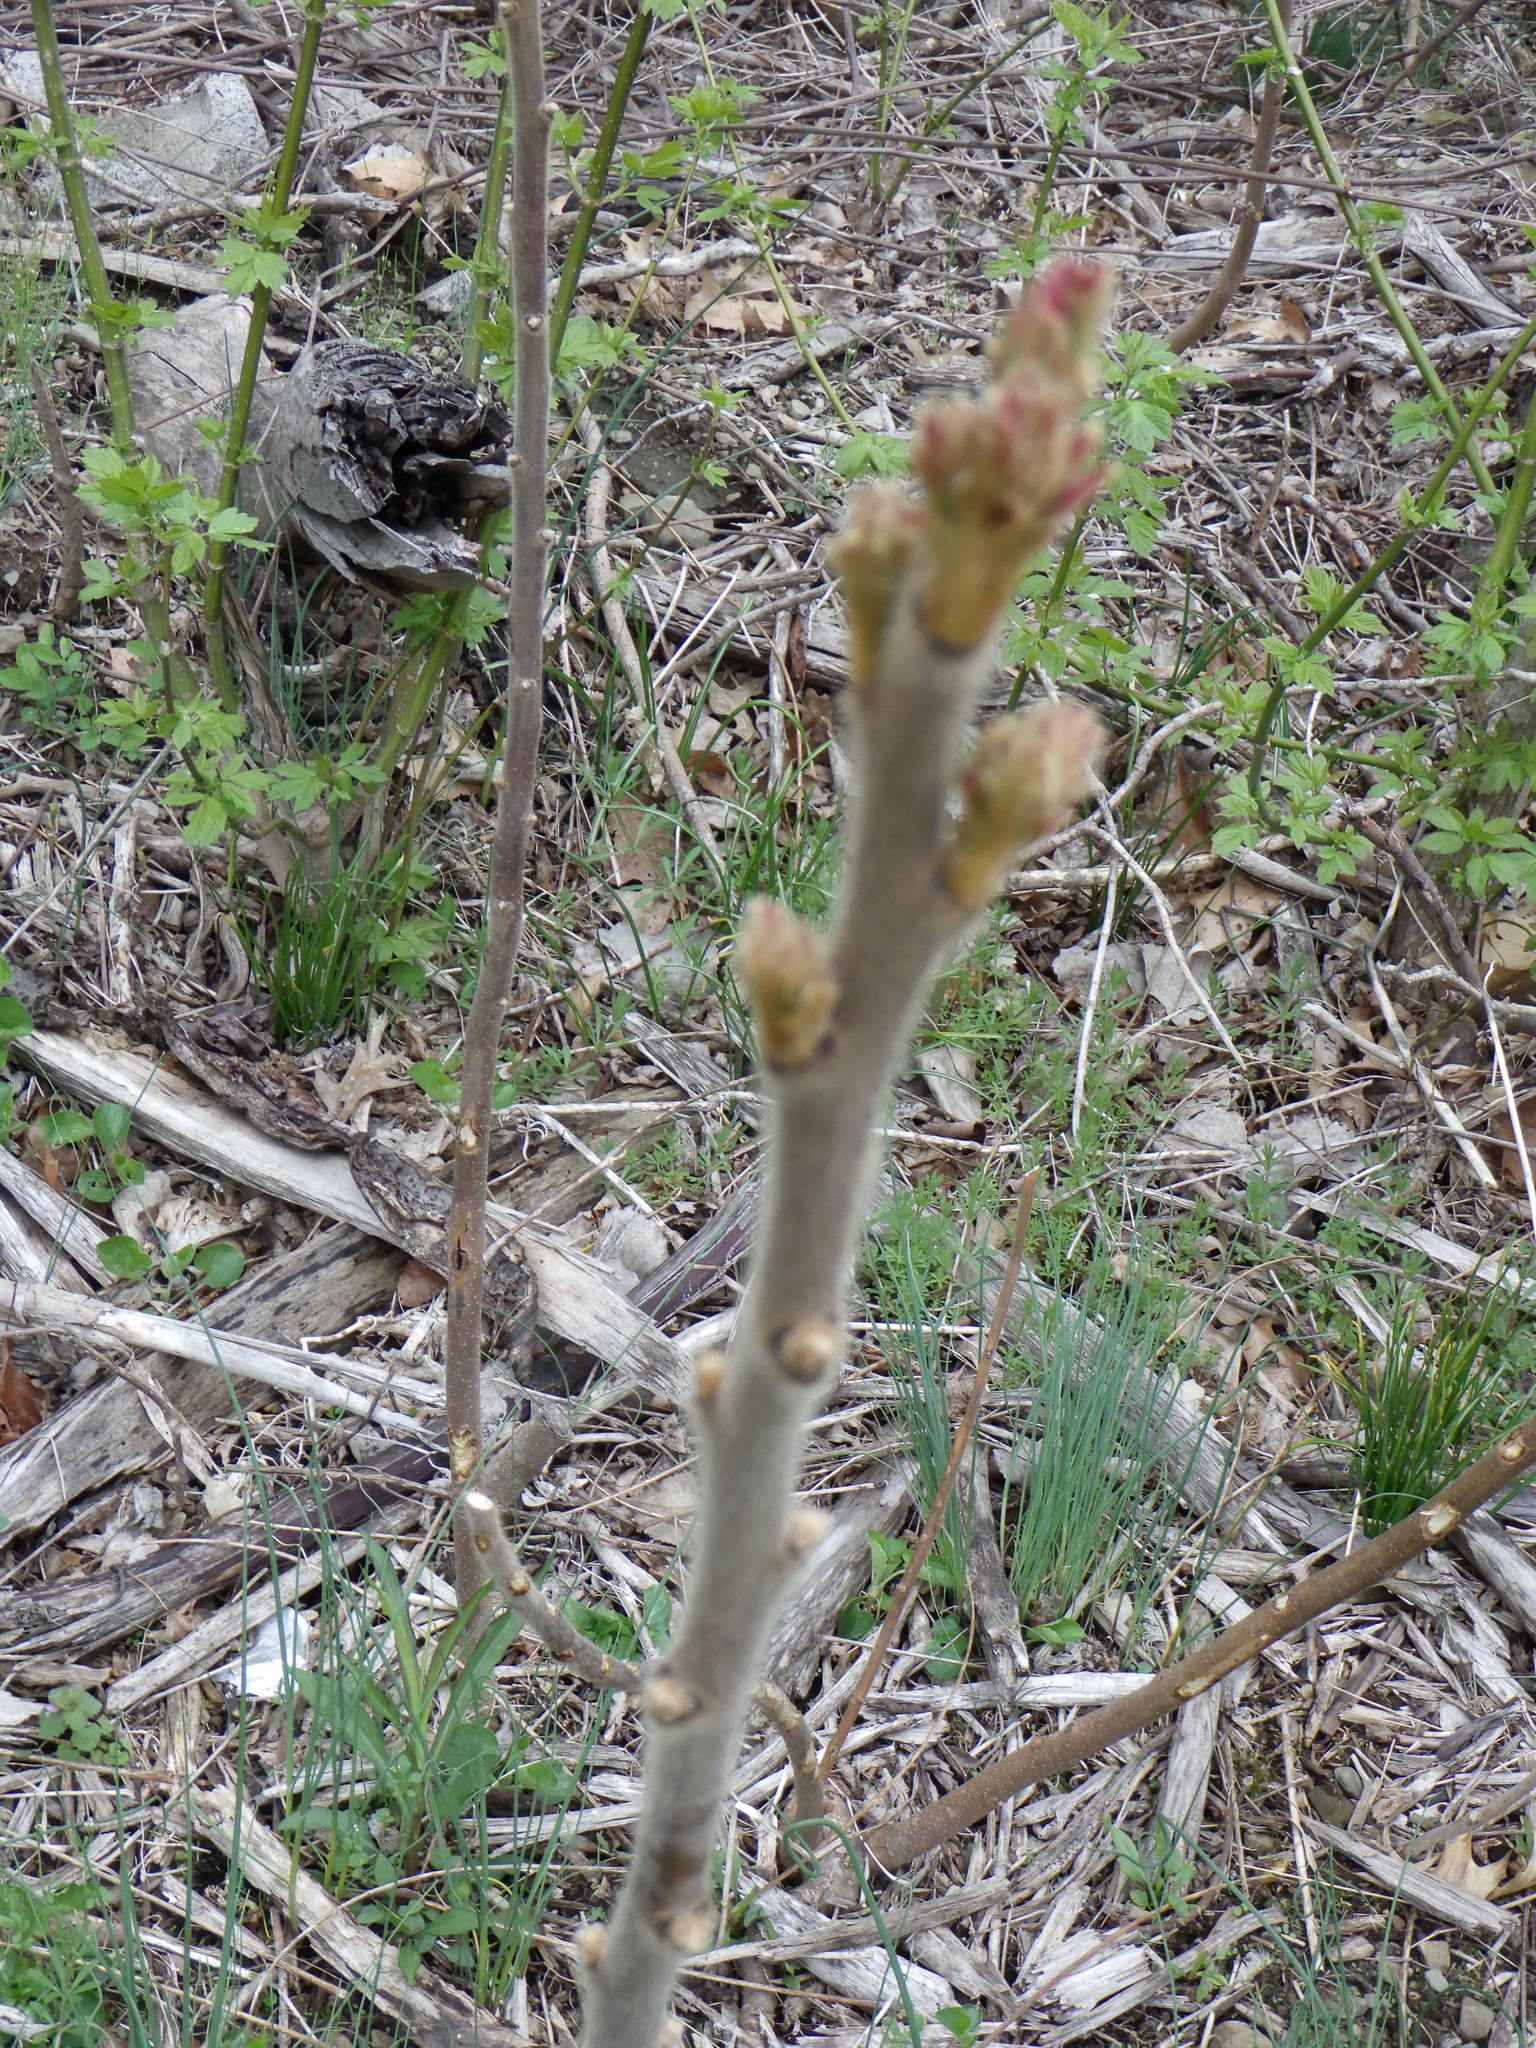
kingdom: Plantae
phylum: Tracheophyta
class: Magnoliopsida
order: Sapindales
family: Anacardiaceae
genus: Rhus
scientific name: Rhus typhina
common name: Staghorn sumac
